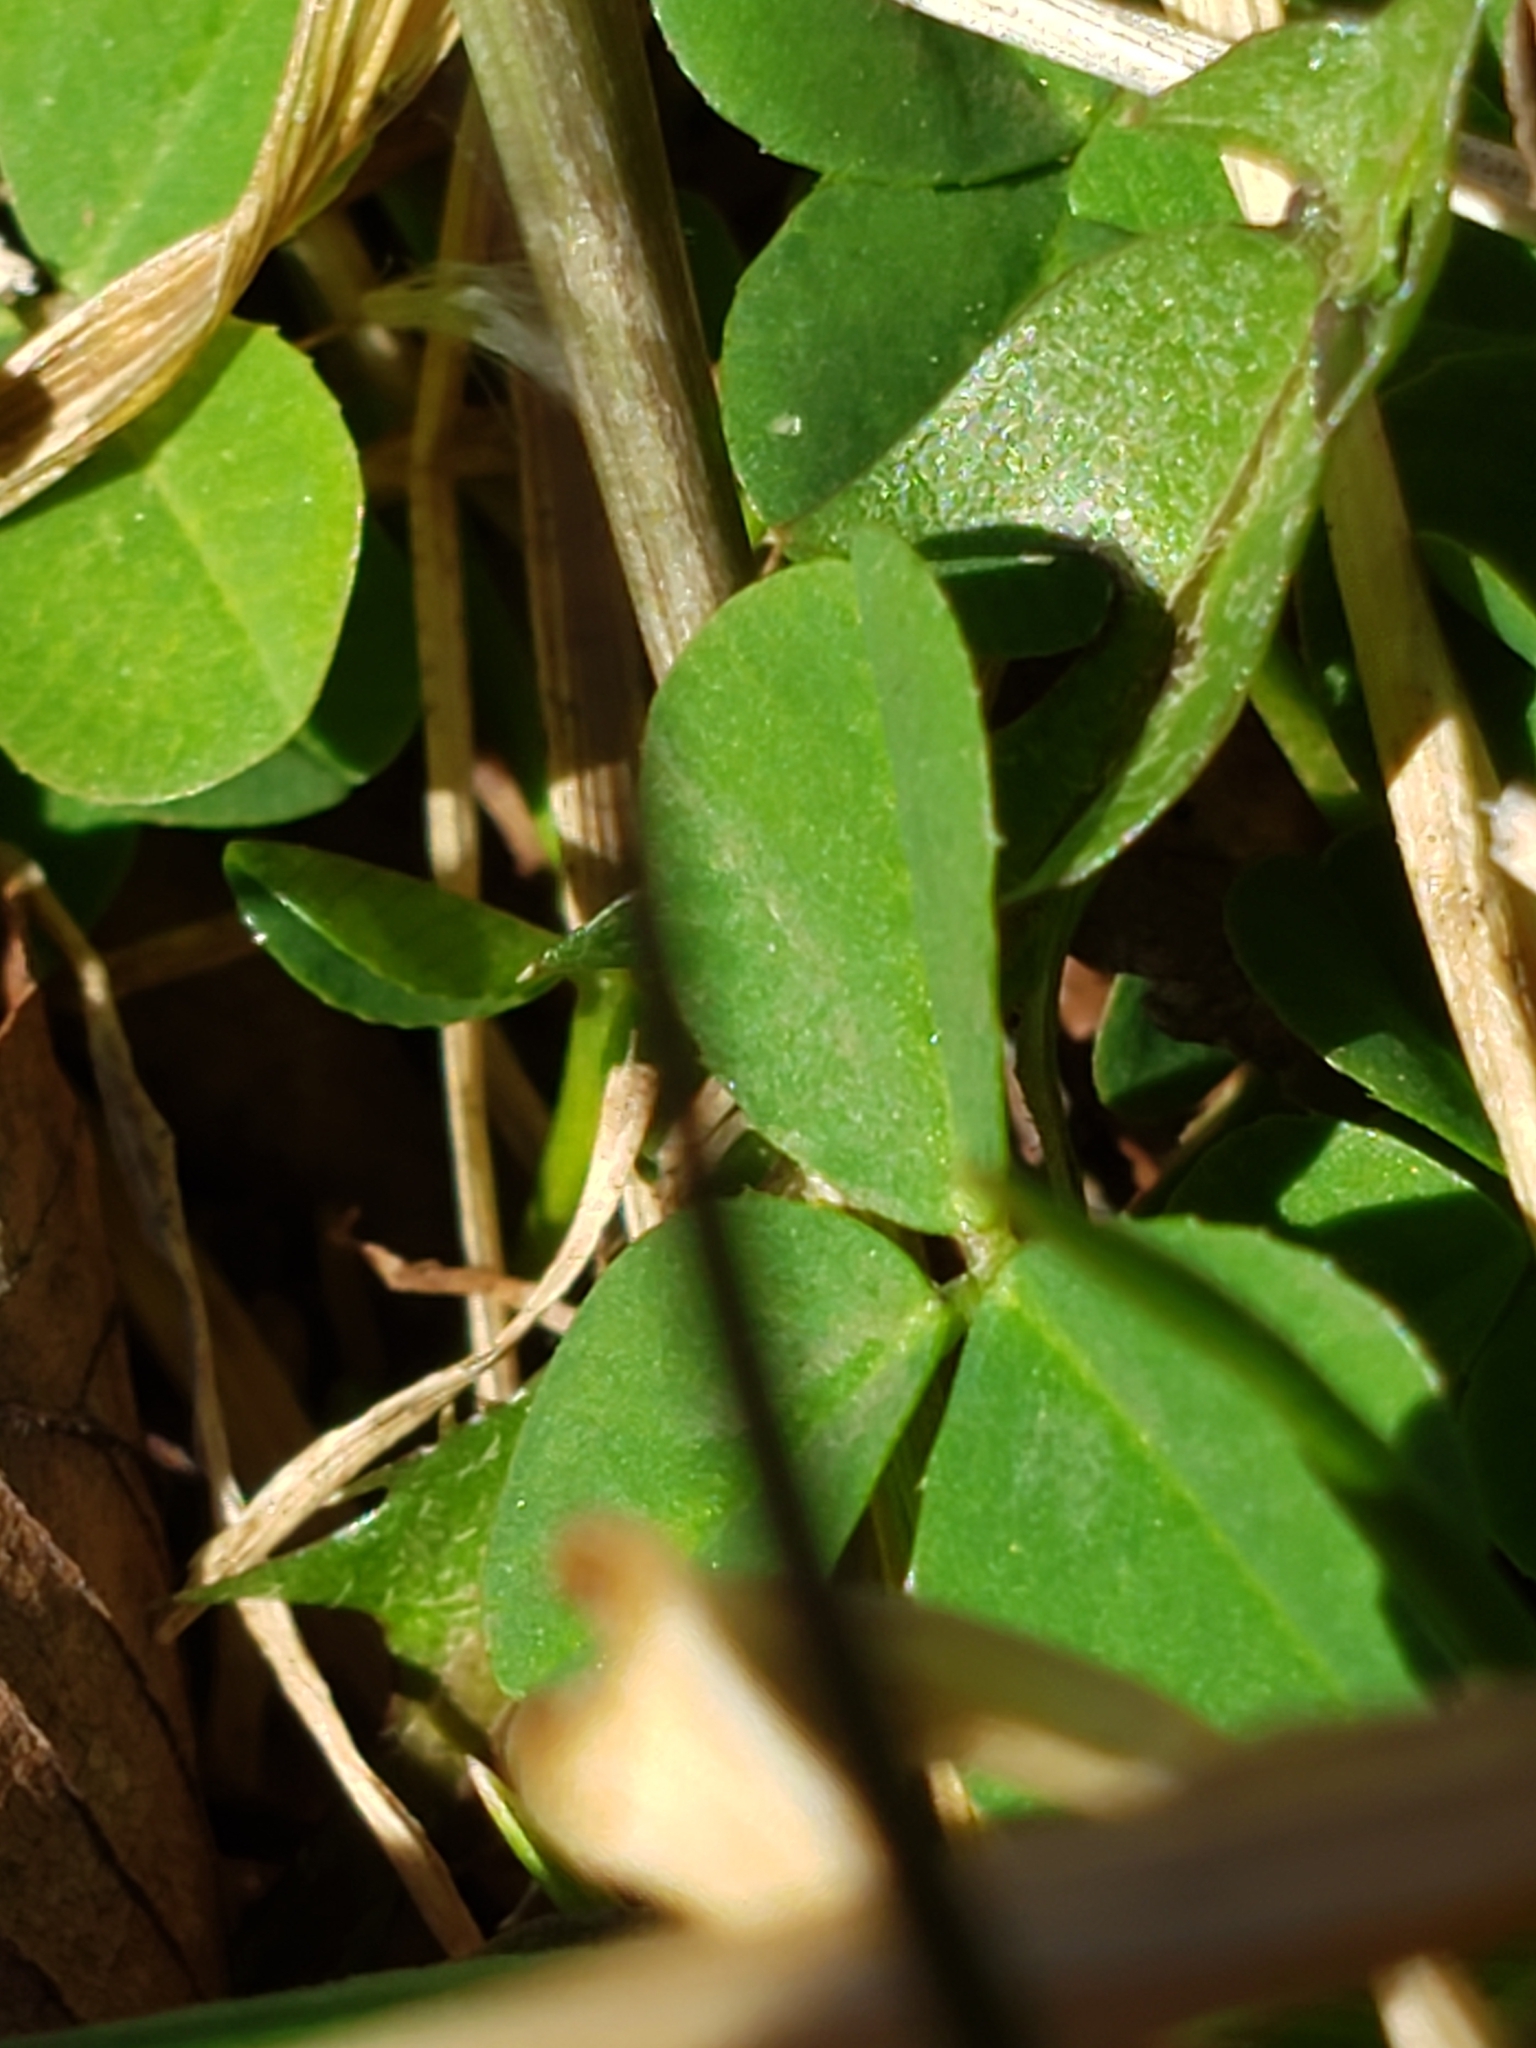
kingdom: Plantae
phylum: Tracheophyta
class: Magnoliopsida
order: Fabales
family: Fabaceae
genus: Trifolium
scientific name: Trifolium repens
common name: White clover
